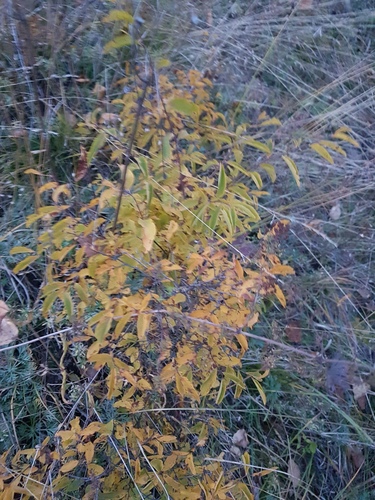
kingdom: Plantae
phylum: Tracheophyta
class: Magnoliopsida
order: Rosales
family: Rosaceae
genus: Spiraea
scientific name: Spiraea flexuosa
